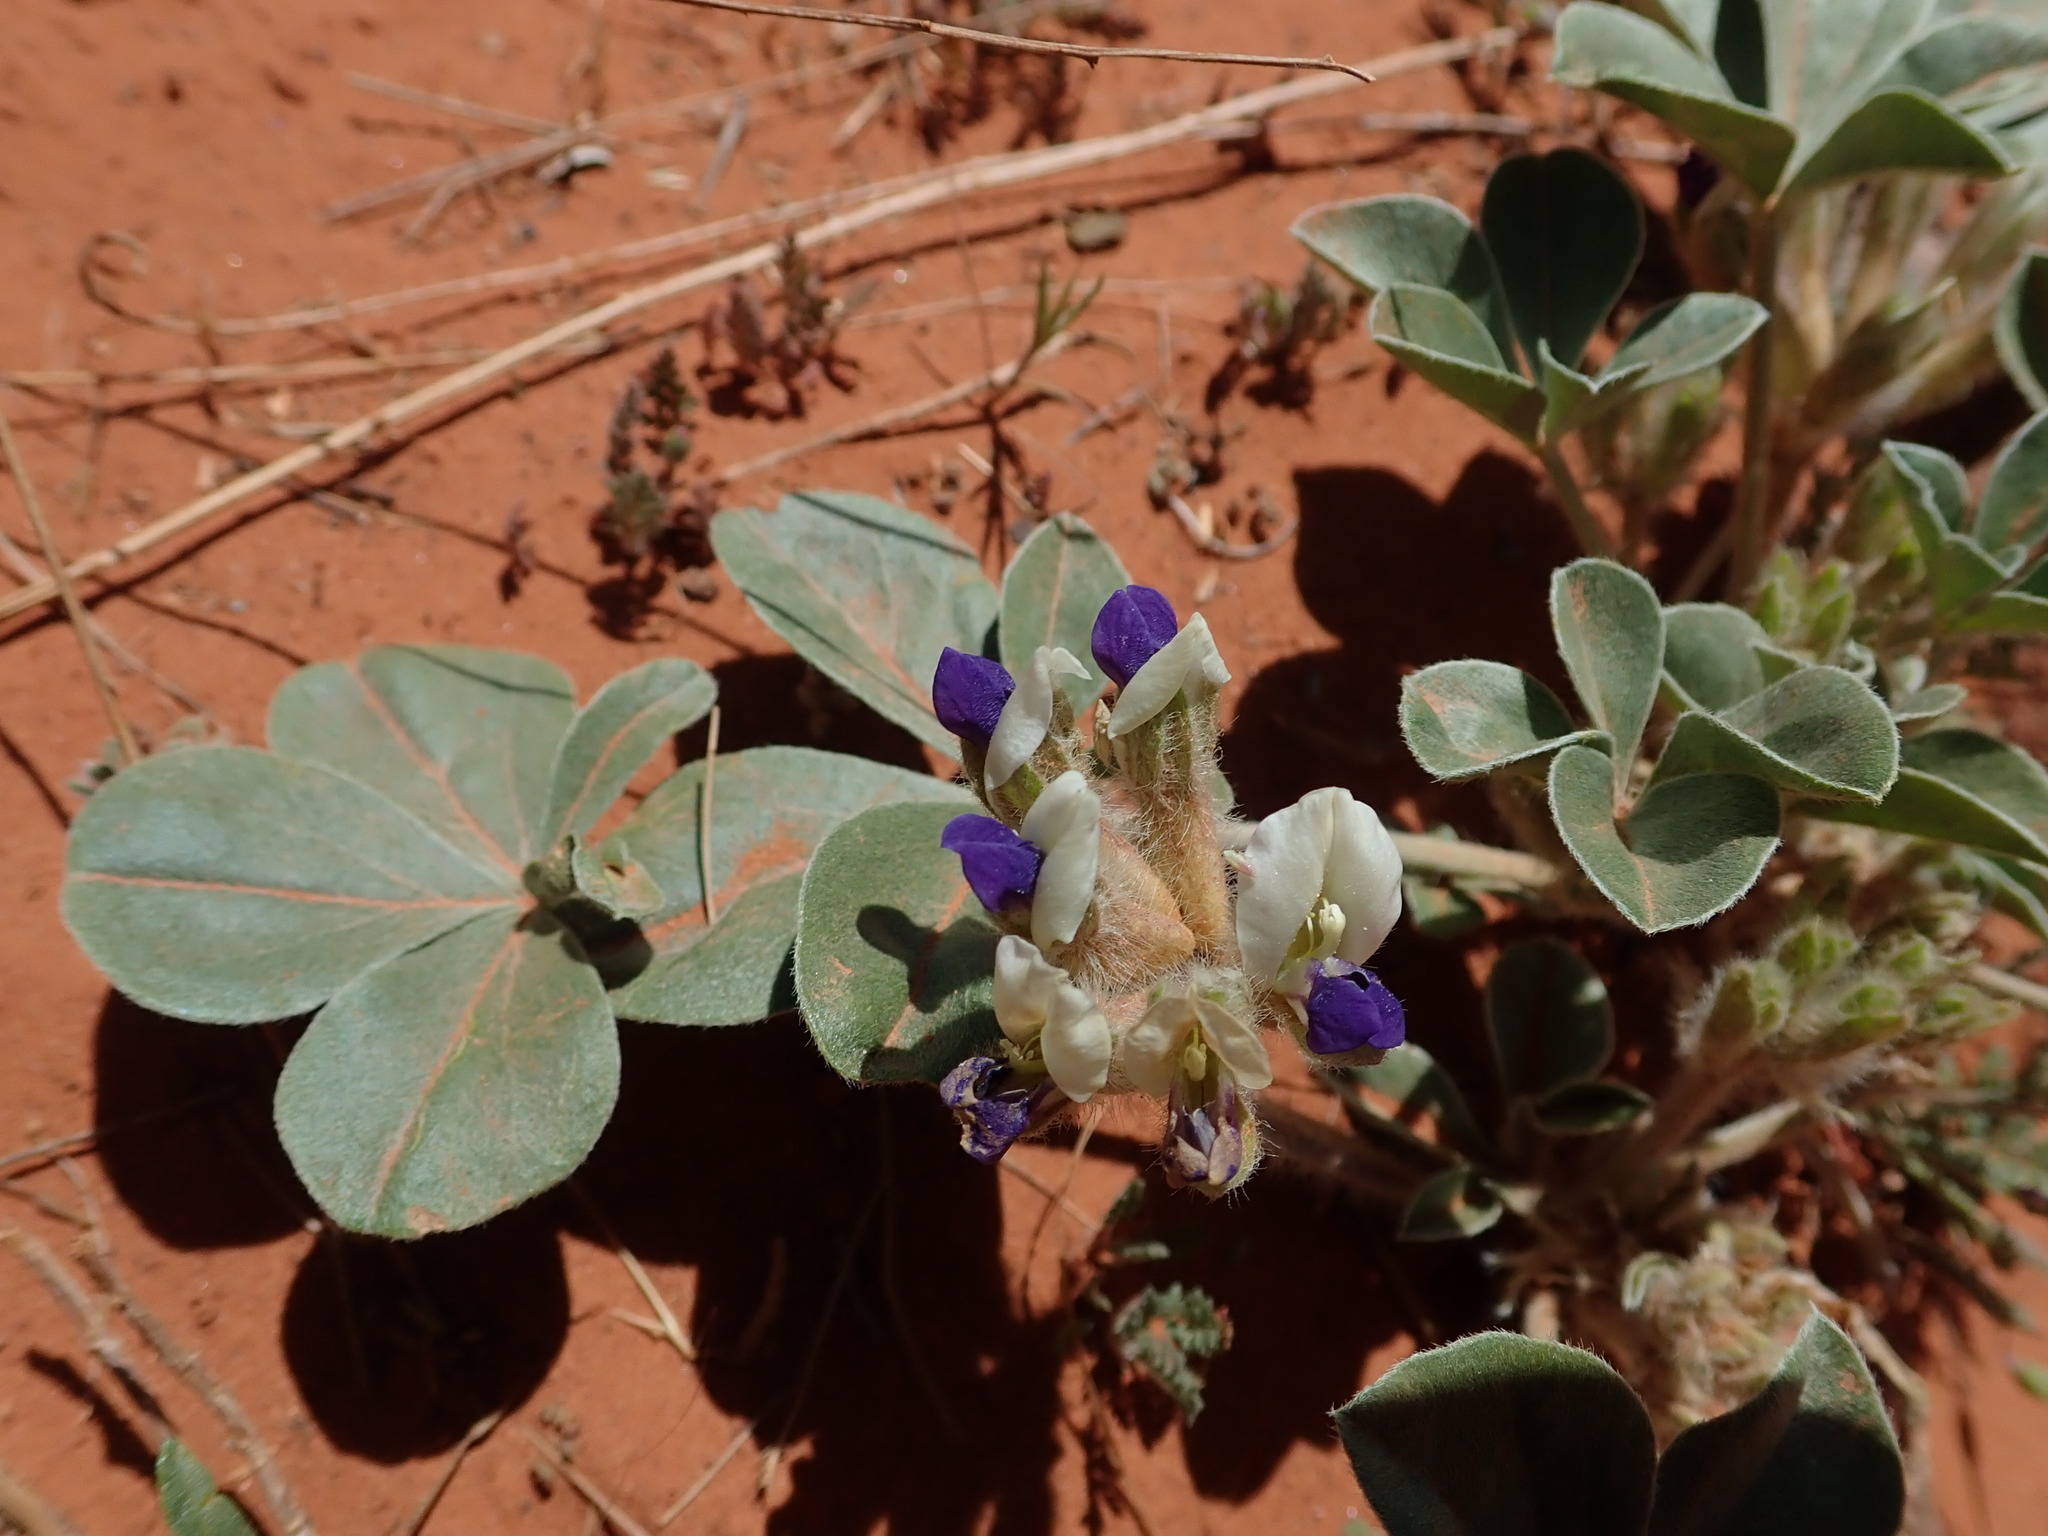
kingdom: Plantae
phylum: Tracheophyta
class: Magnoliopsida
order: Fabales
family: Fabaceae
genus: Pediomelum
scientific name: Pediomelum megalanthum
